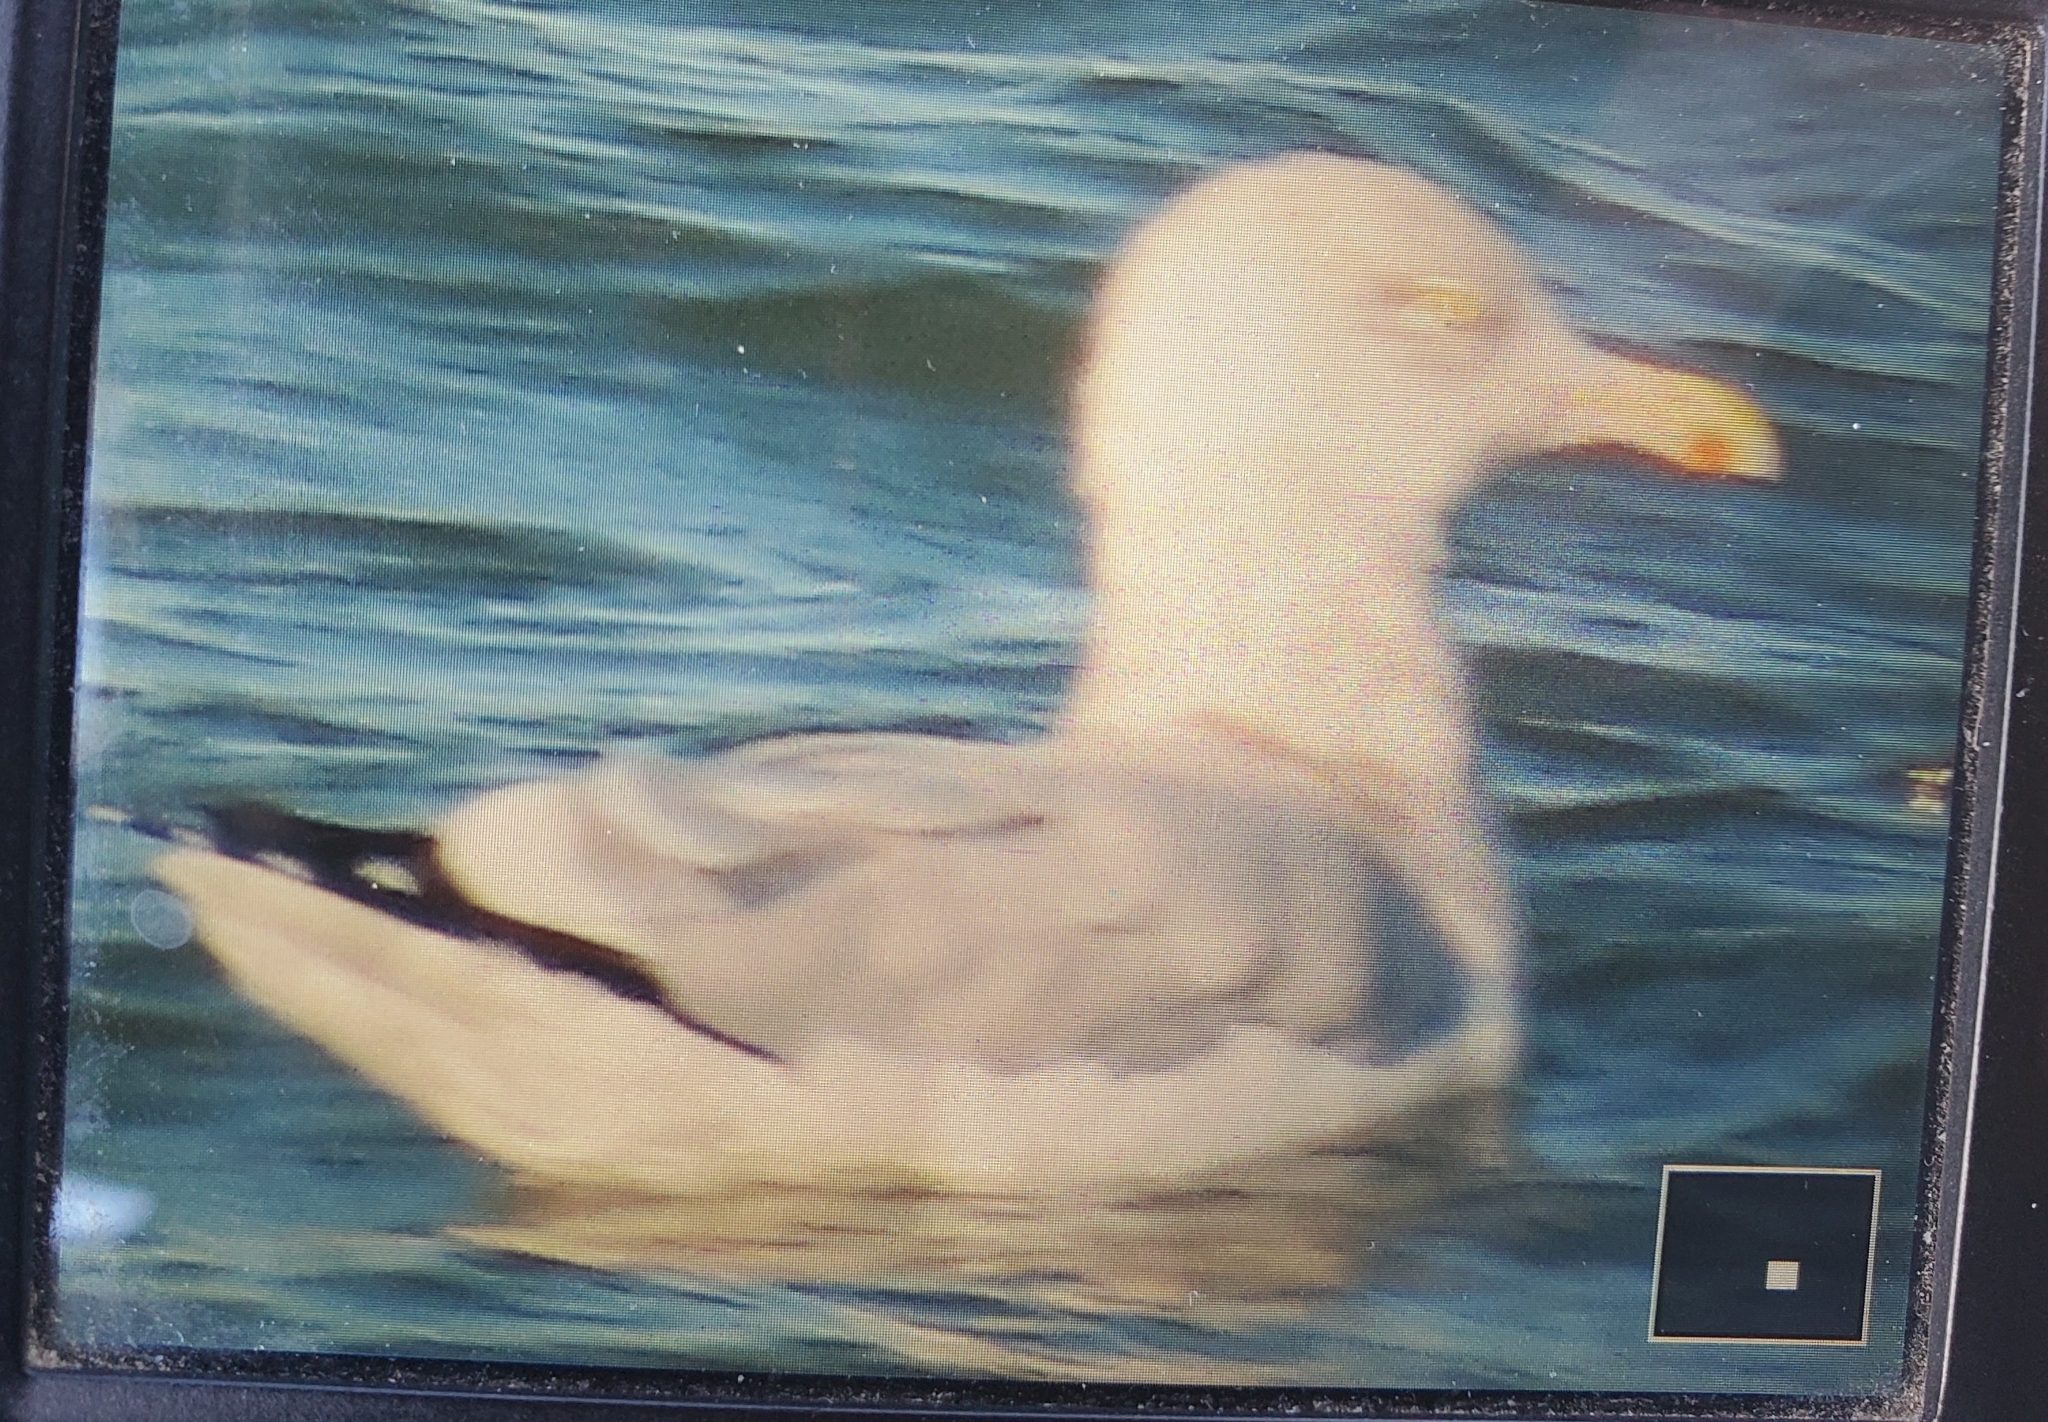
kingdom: Animalia
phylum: Chordata
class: Aves
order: Charadriiformes
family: Laridae
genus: Larus
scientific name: Larus argentatus
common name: Herring gull
